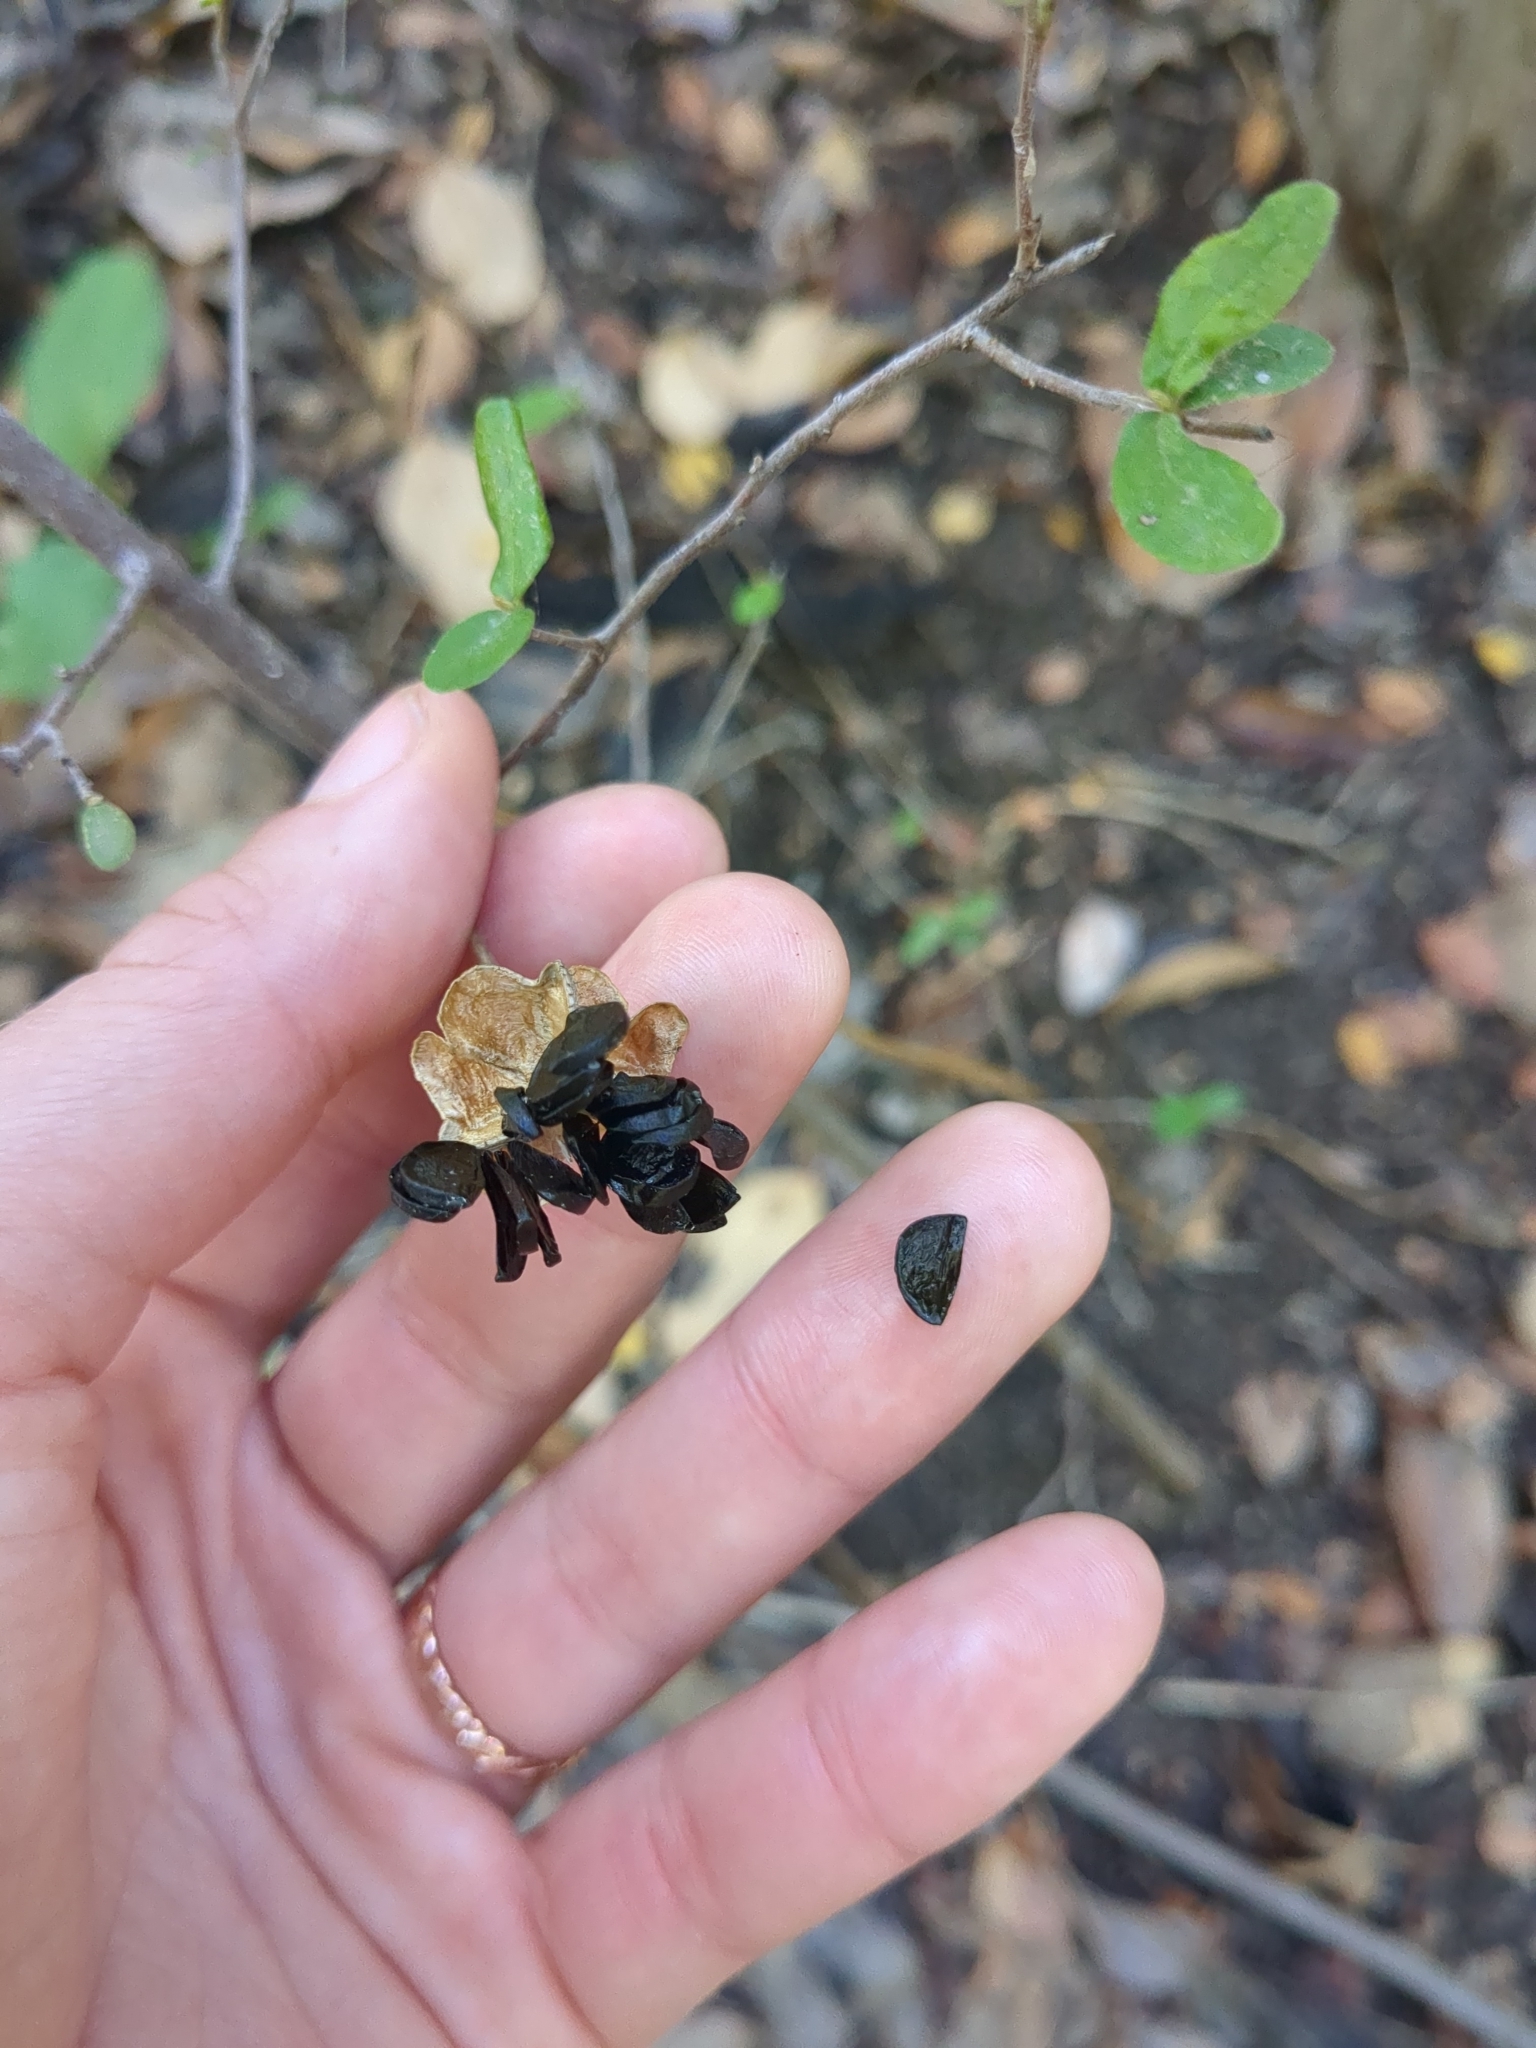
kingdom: Plantae
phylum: Tracheophyta
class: Liliopsida
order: Asparagales
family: Amaryllidaceae
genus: Zephyranthes
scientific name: Zephyranthes
